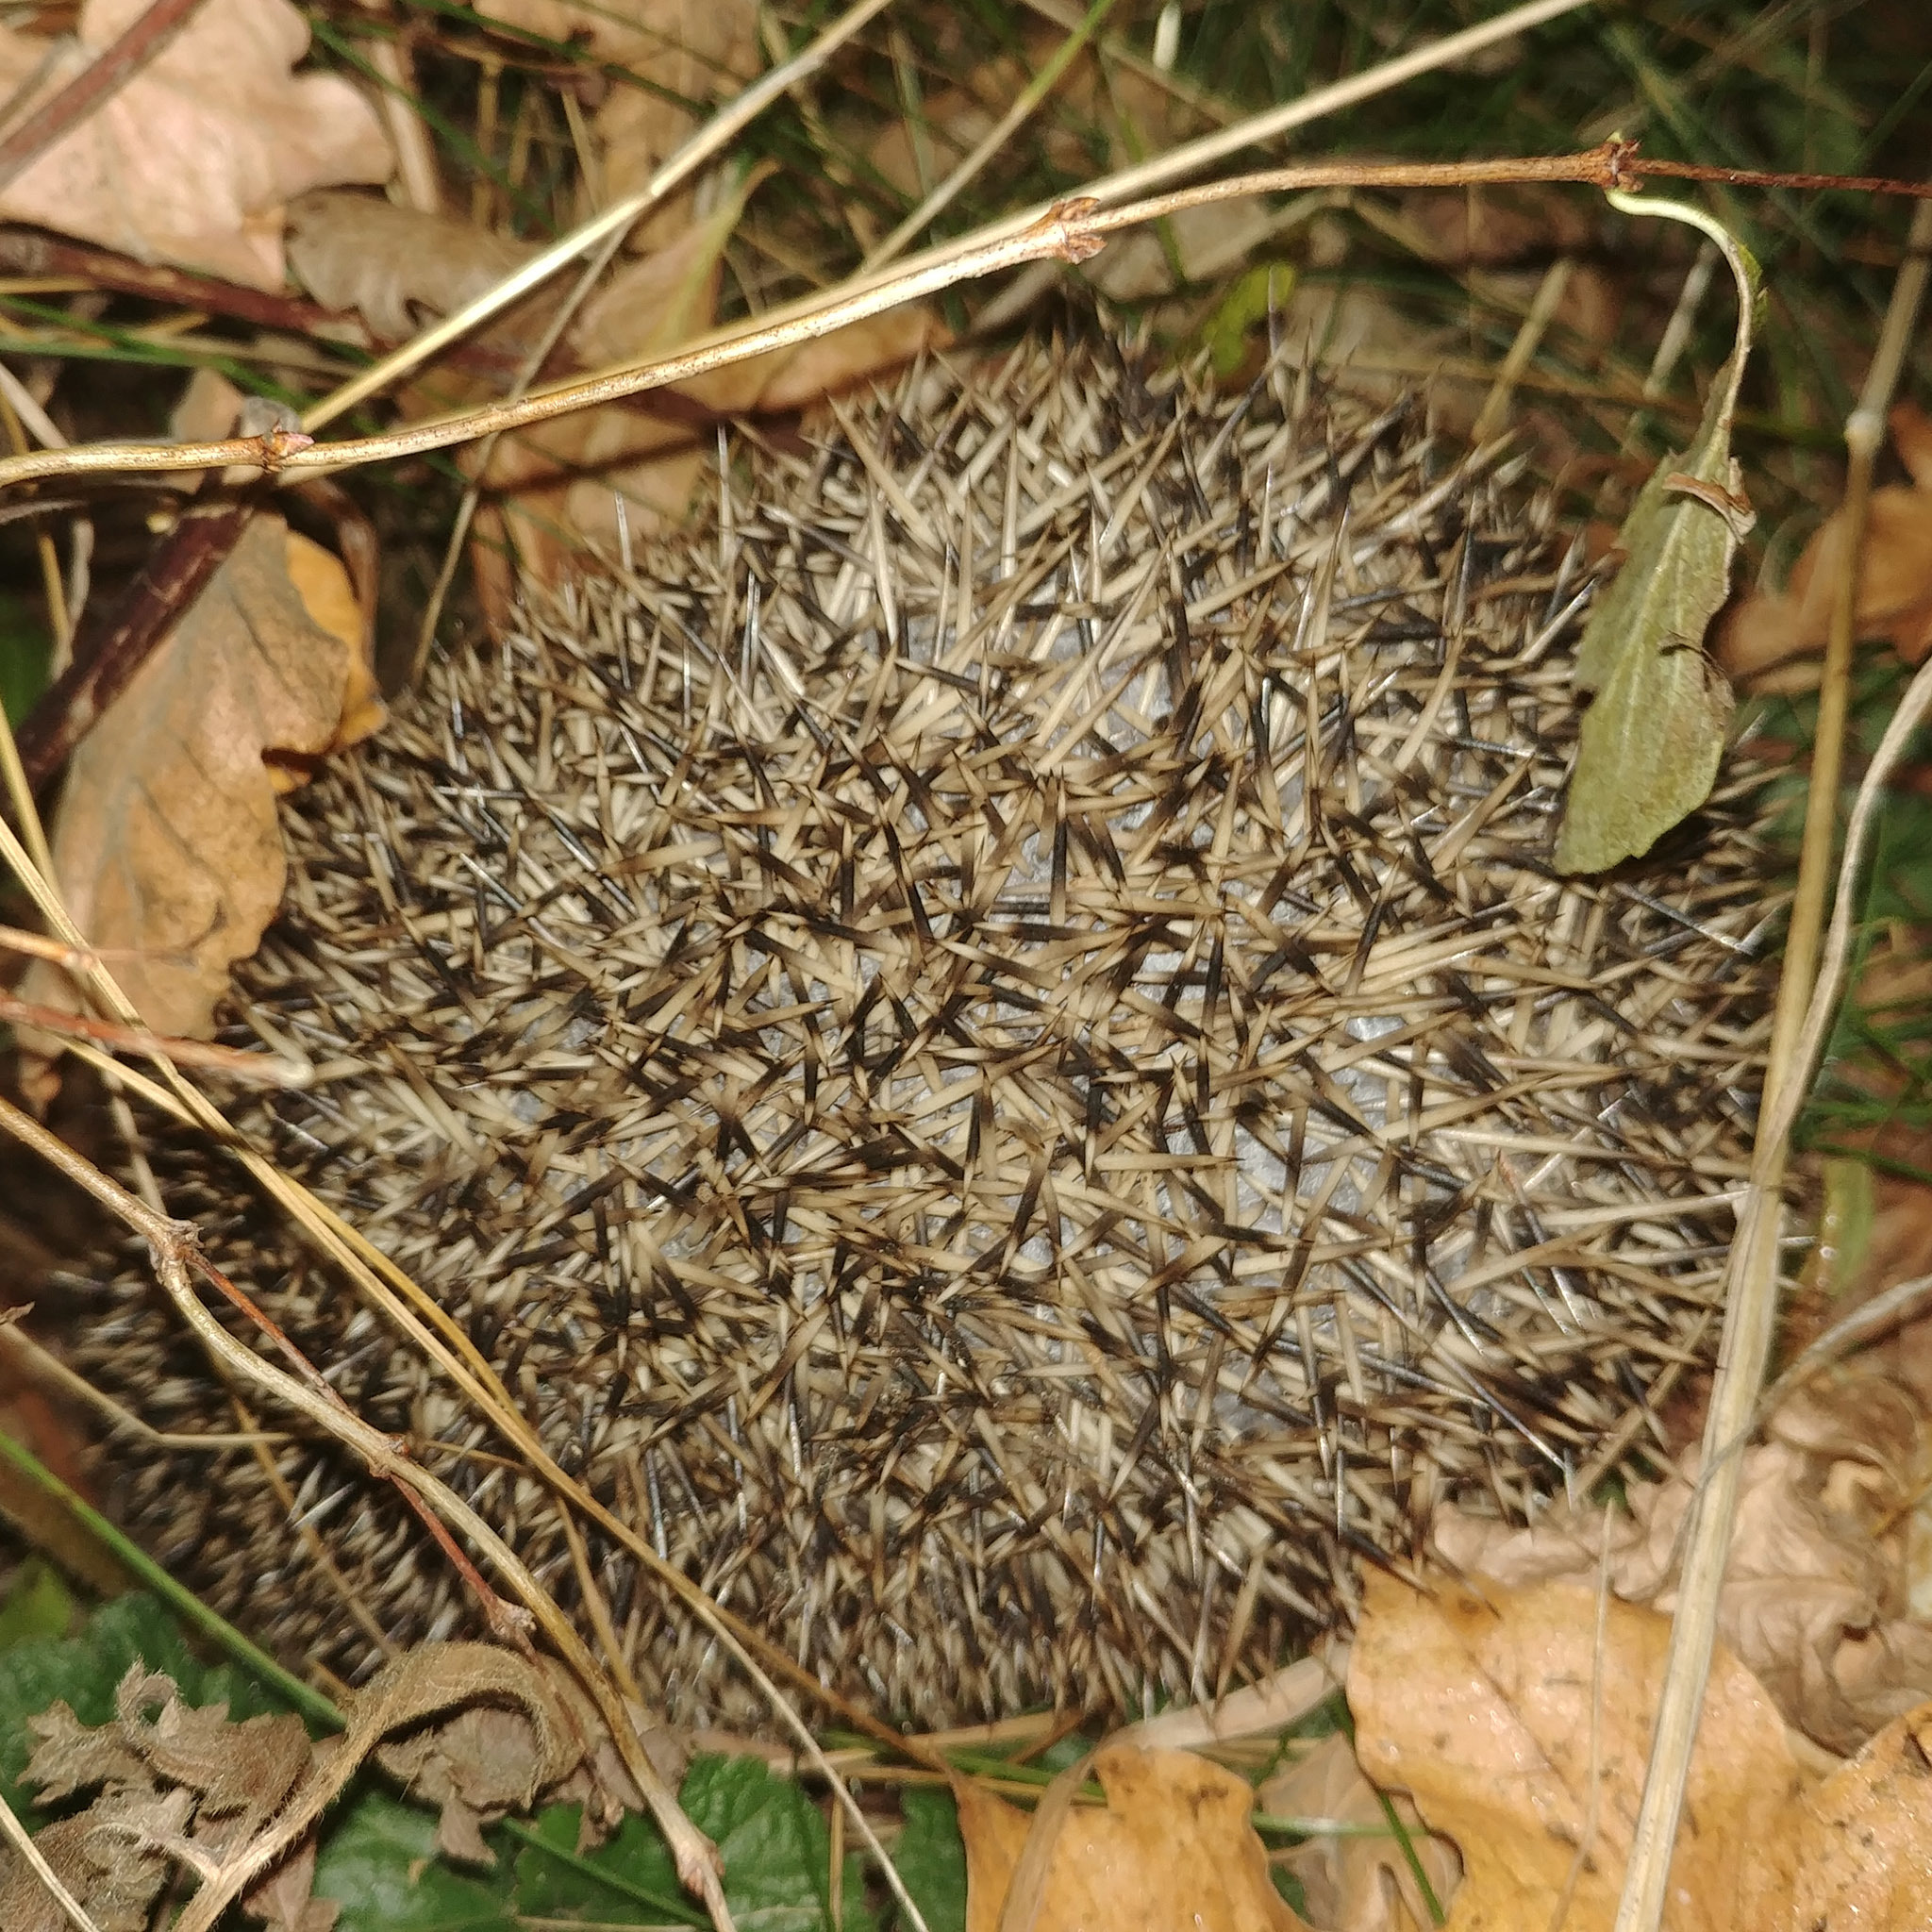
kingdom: Animalia
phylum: Chordata
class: Mammalia
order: Erinaceomorpha
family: Erinaceidae
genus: Erinaceus
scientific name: Erinaceus europaeus
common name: West european hedgehog
